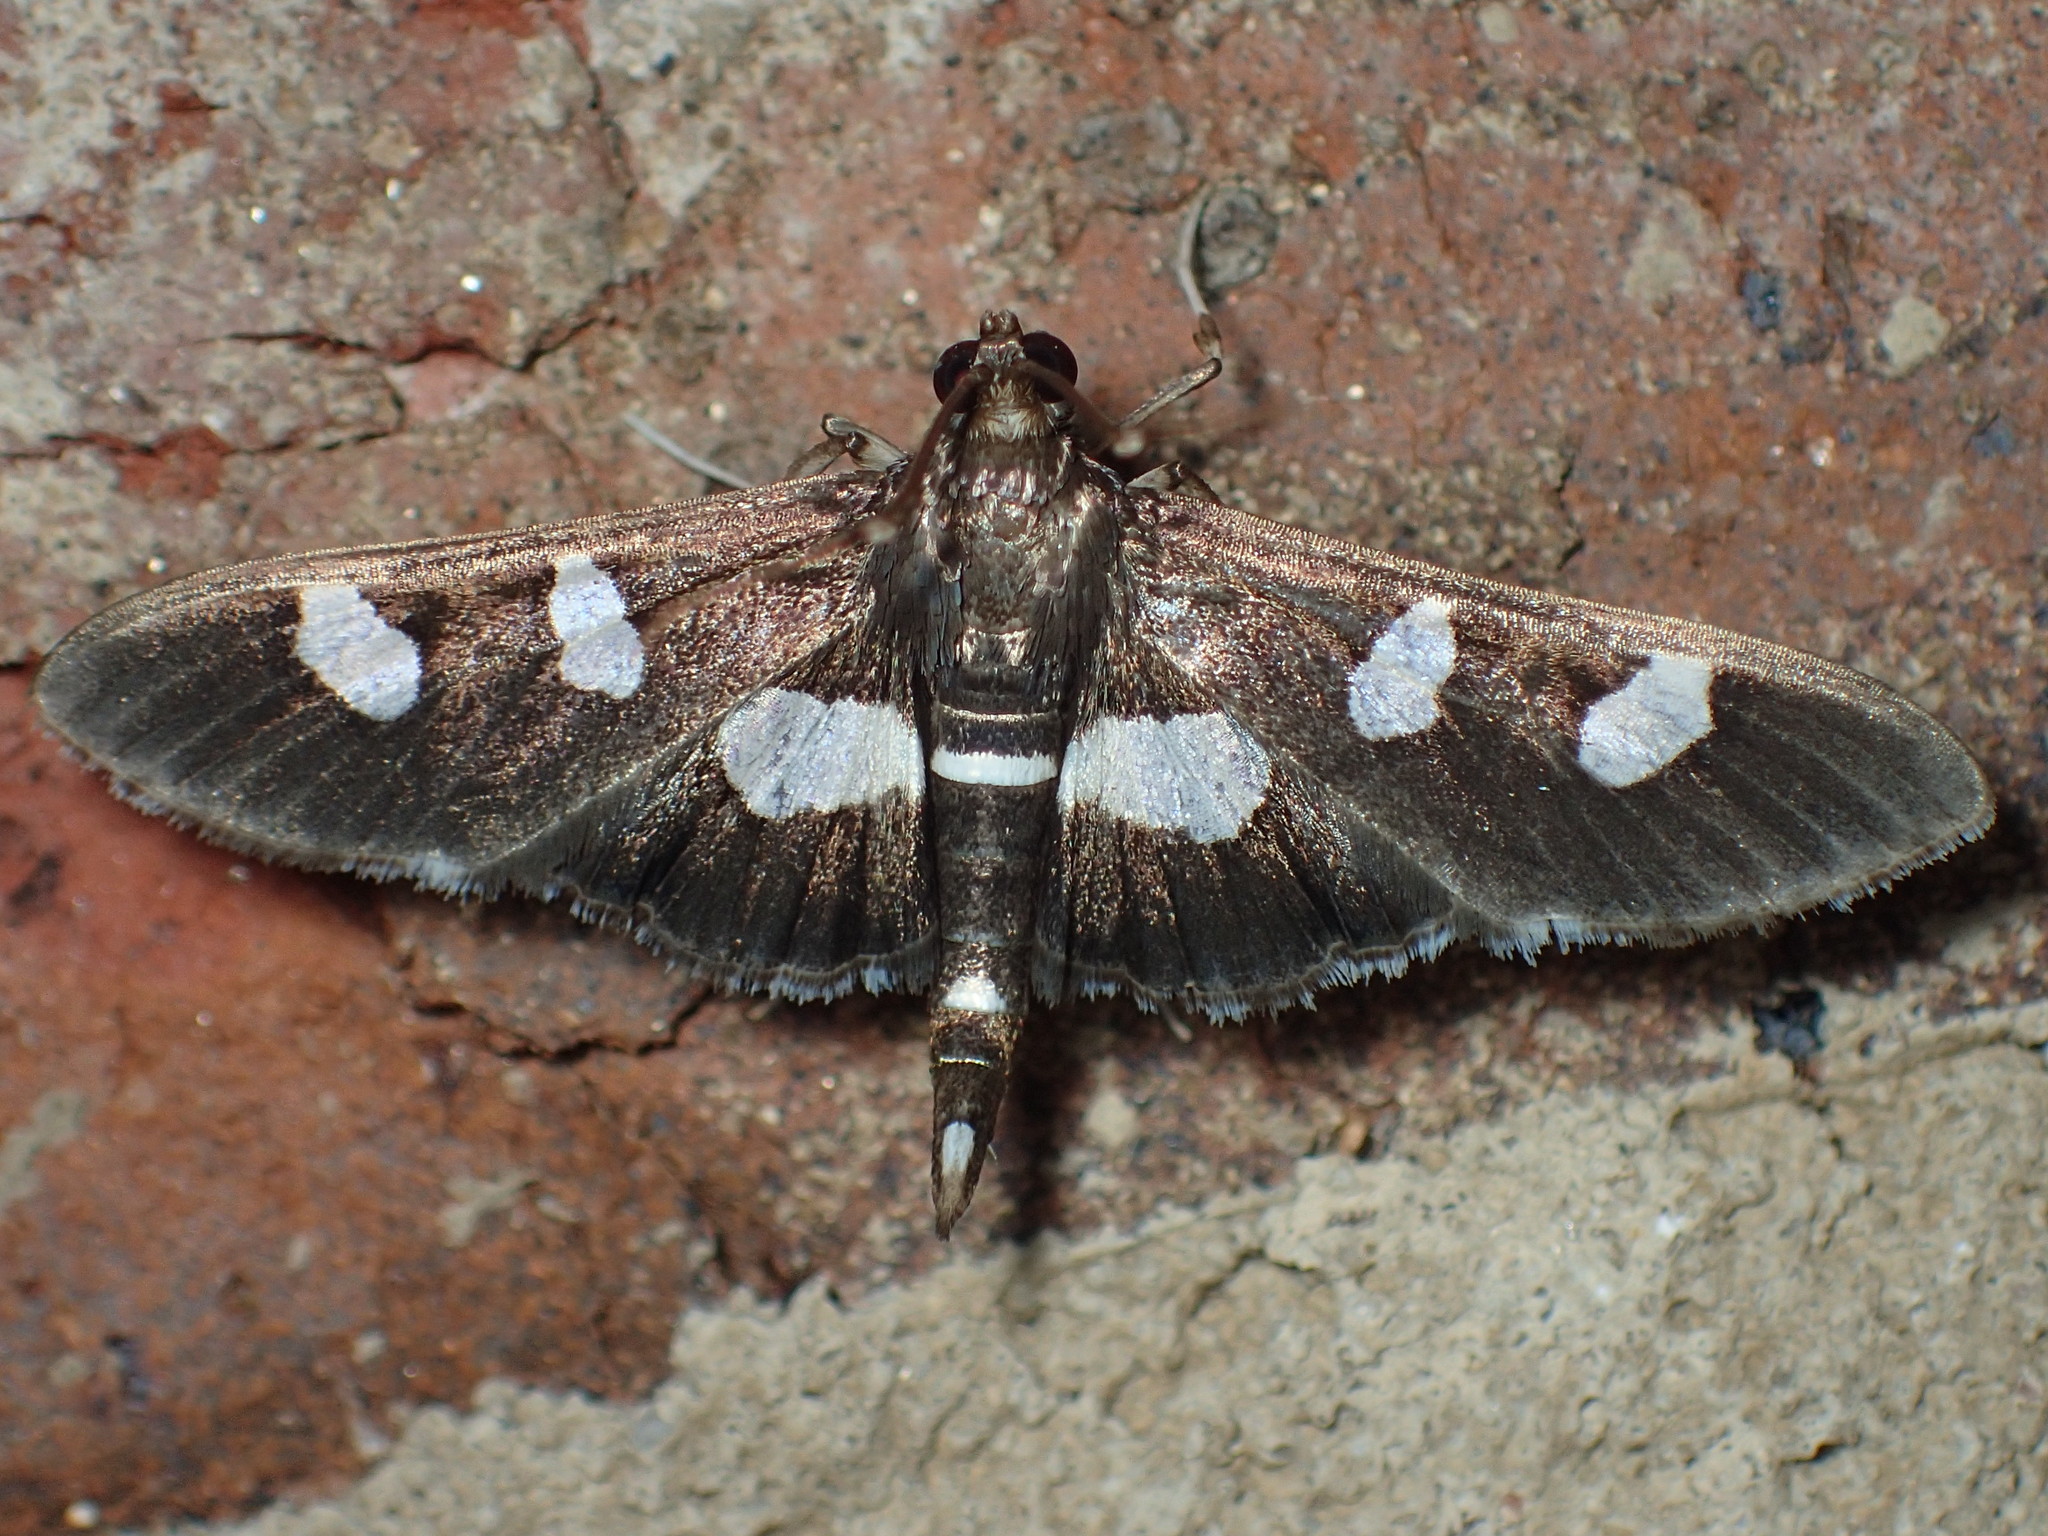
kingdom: Animalia
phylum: Arthropoda
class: Insecta
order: Lepidoptera
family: Crambidae
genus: Desmia
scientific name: Desmia
